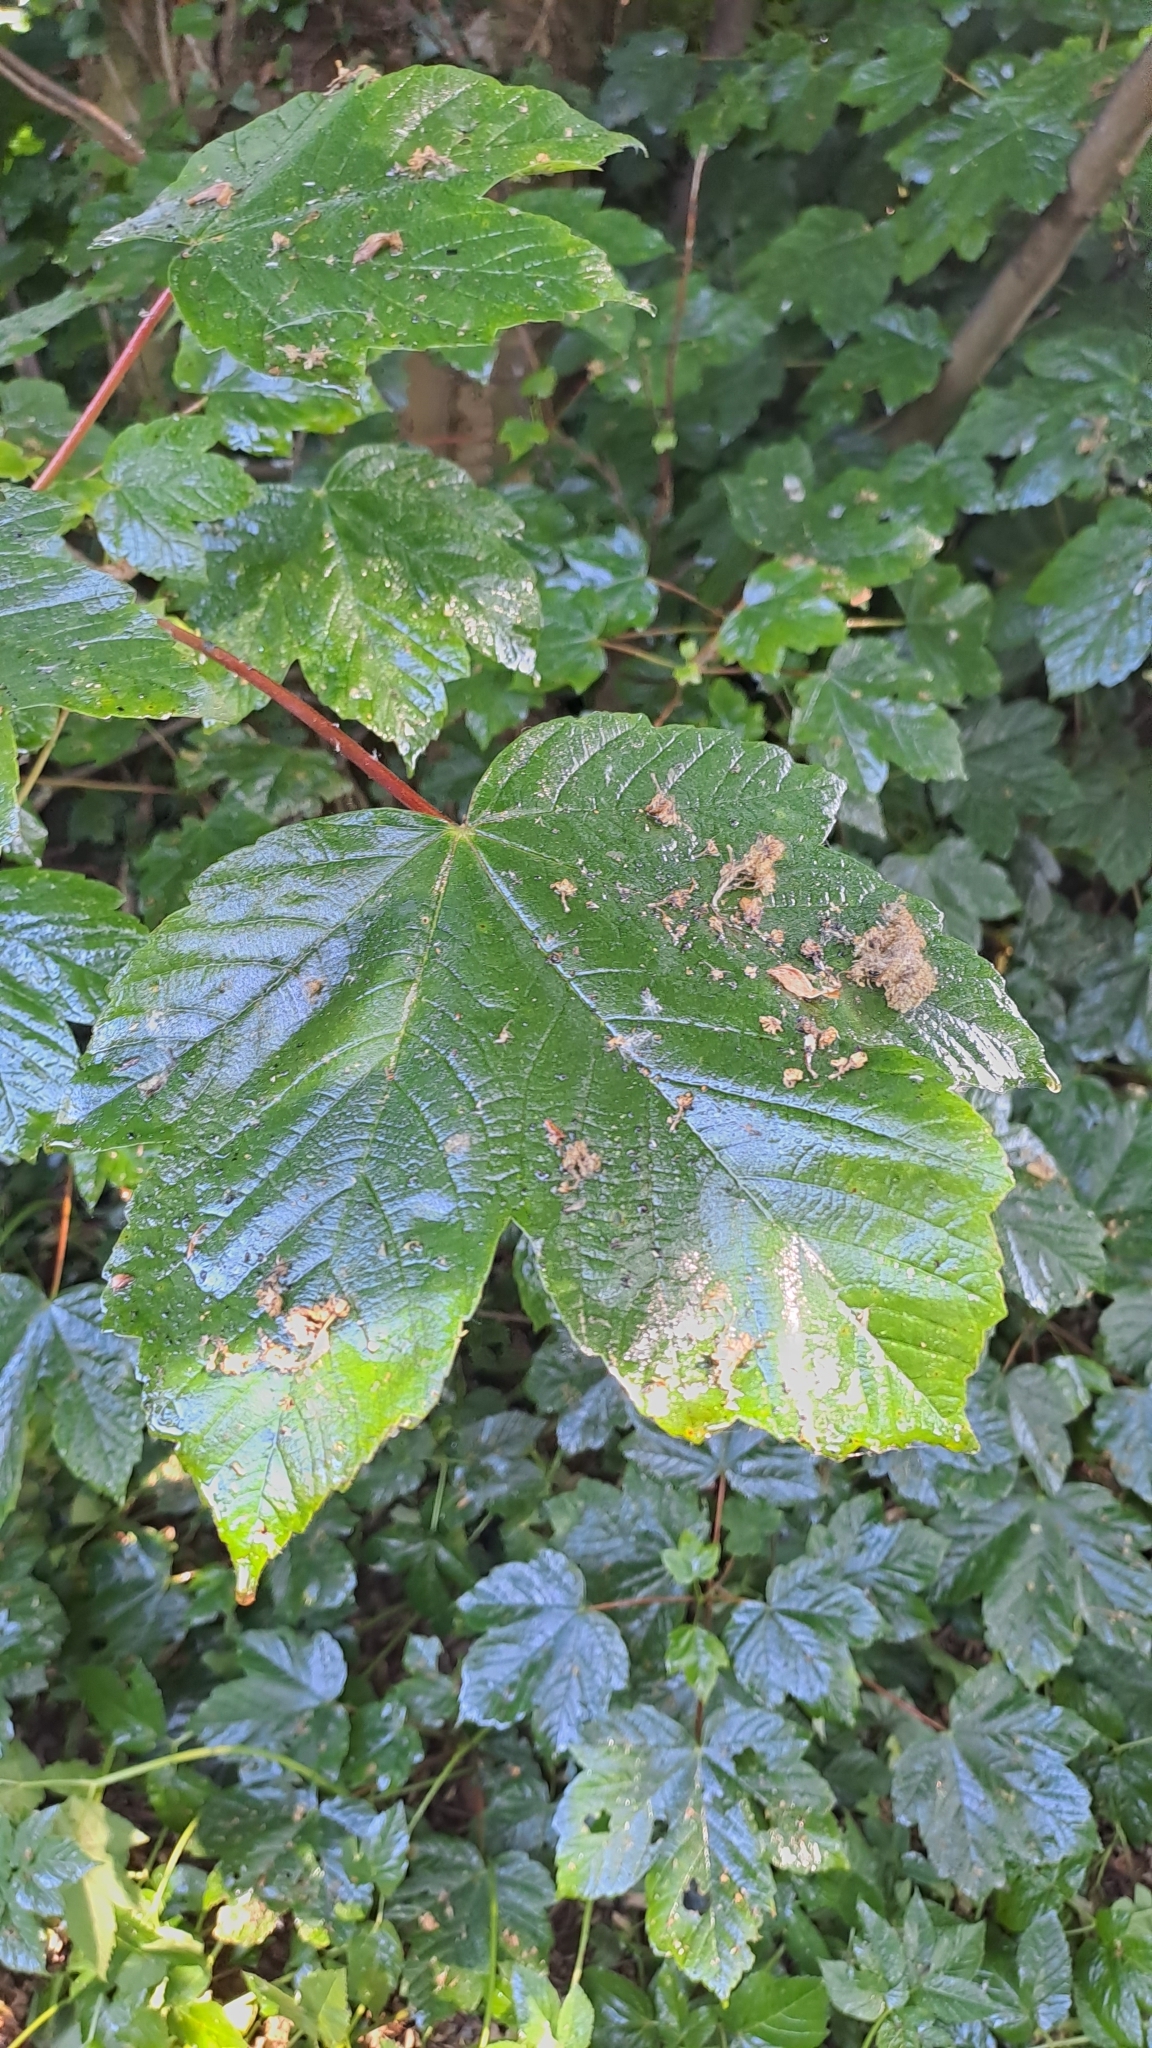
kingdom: Plantae
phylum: Tracheophyta
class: Magnoliopsida
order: Sapindales
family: Sapindaceae
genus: Acer
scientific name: Acer pseudoplatanus
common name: Sycamore
